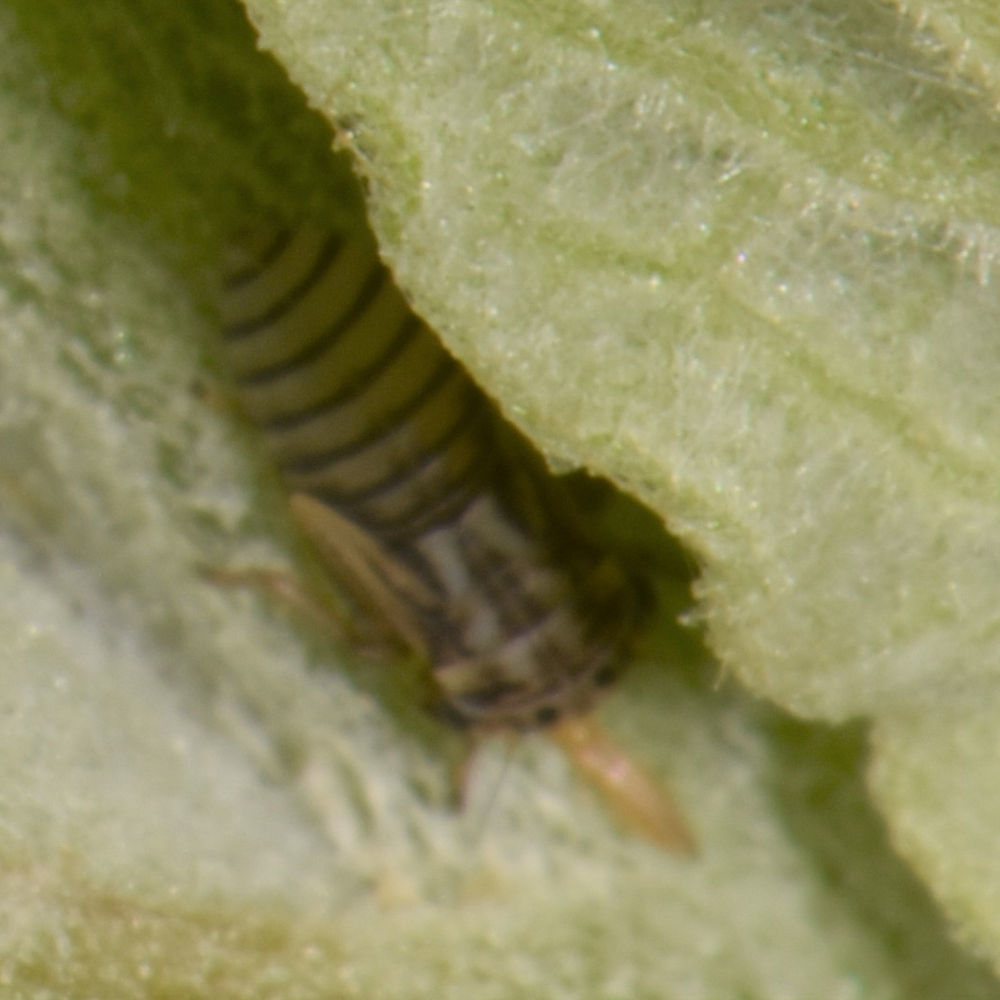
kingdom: Animalia
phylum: Arthropoda
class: Insecta
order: Hemiptera
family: Cicadellidae
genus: Agalliopsis
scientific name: Agalliopsis novella
